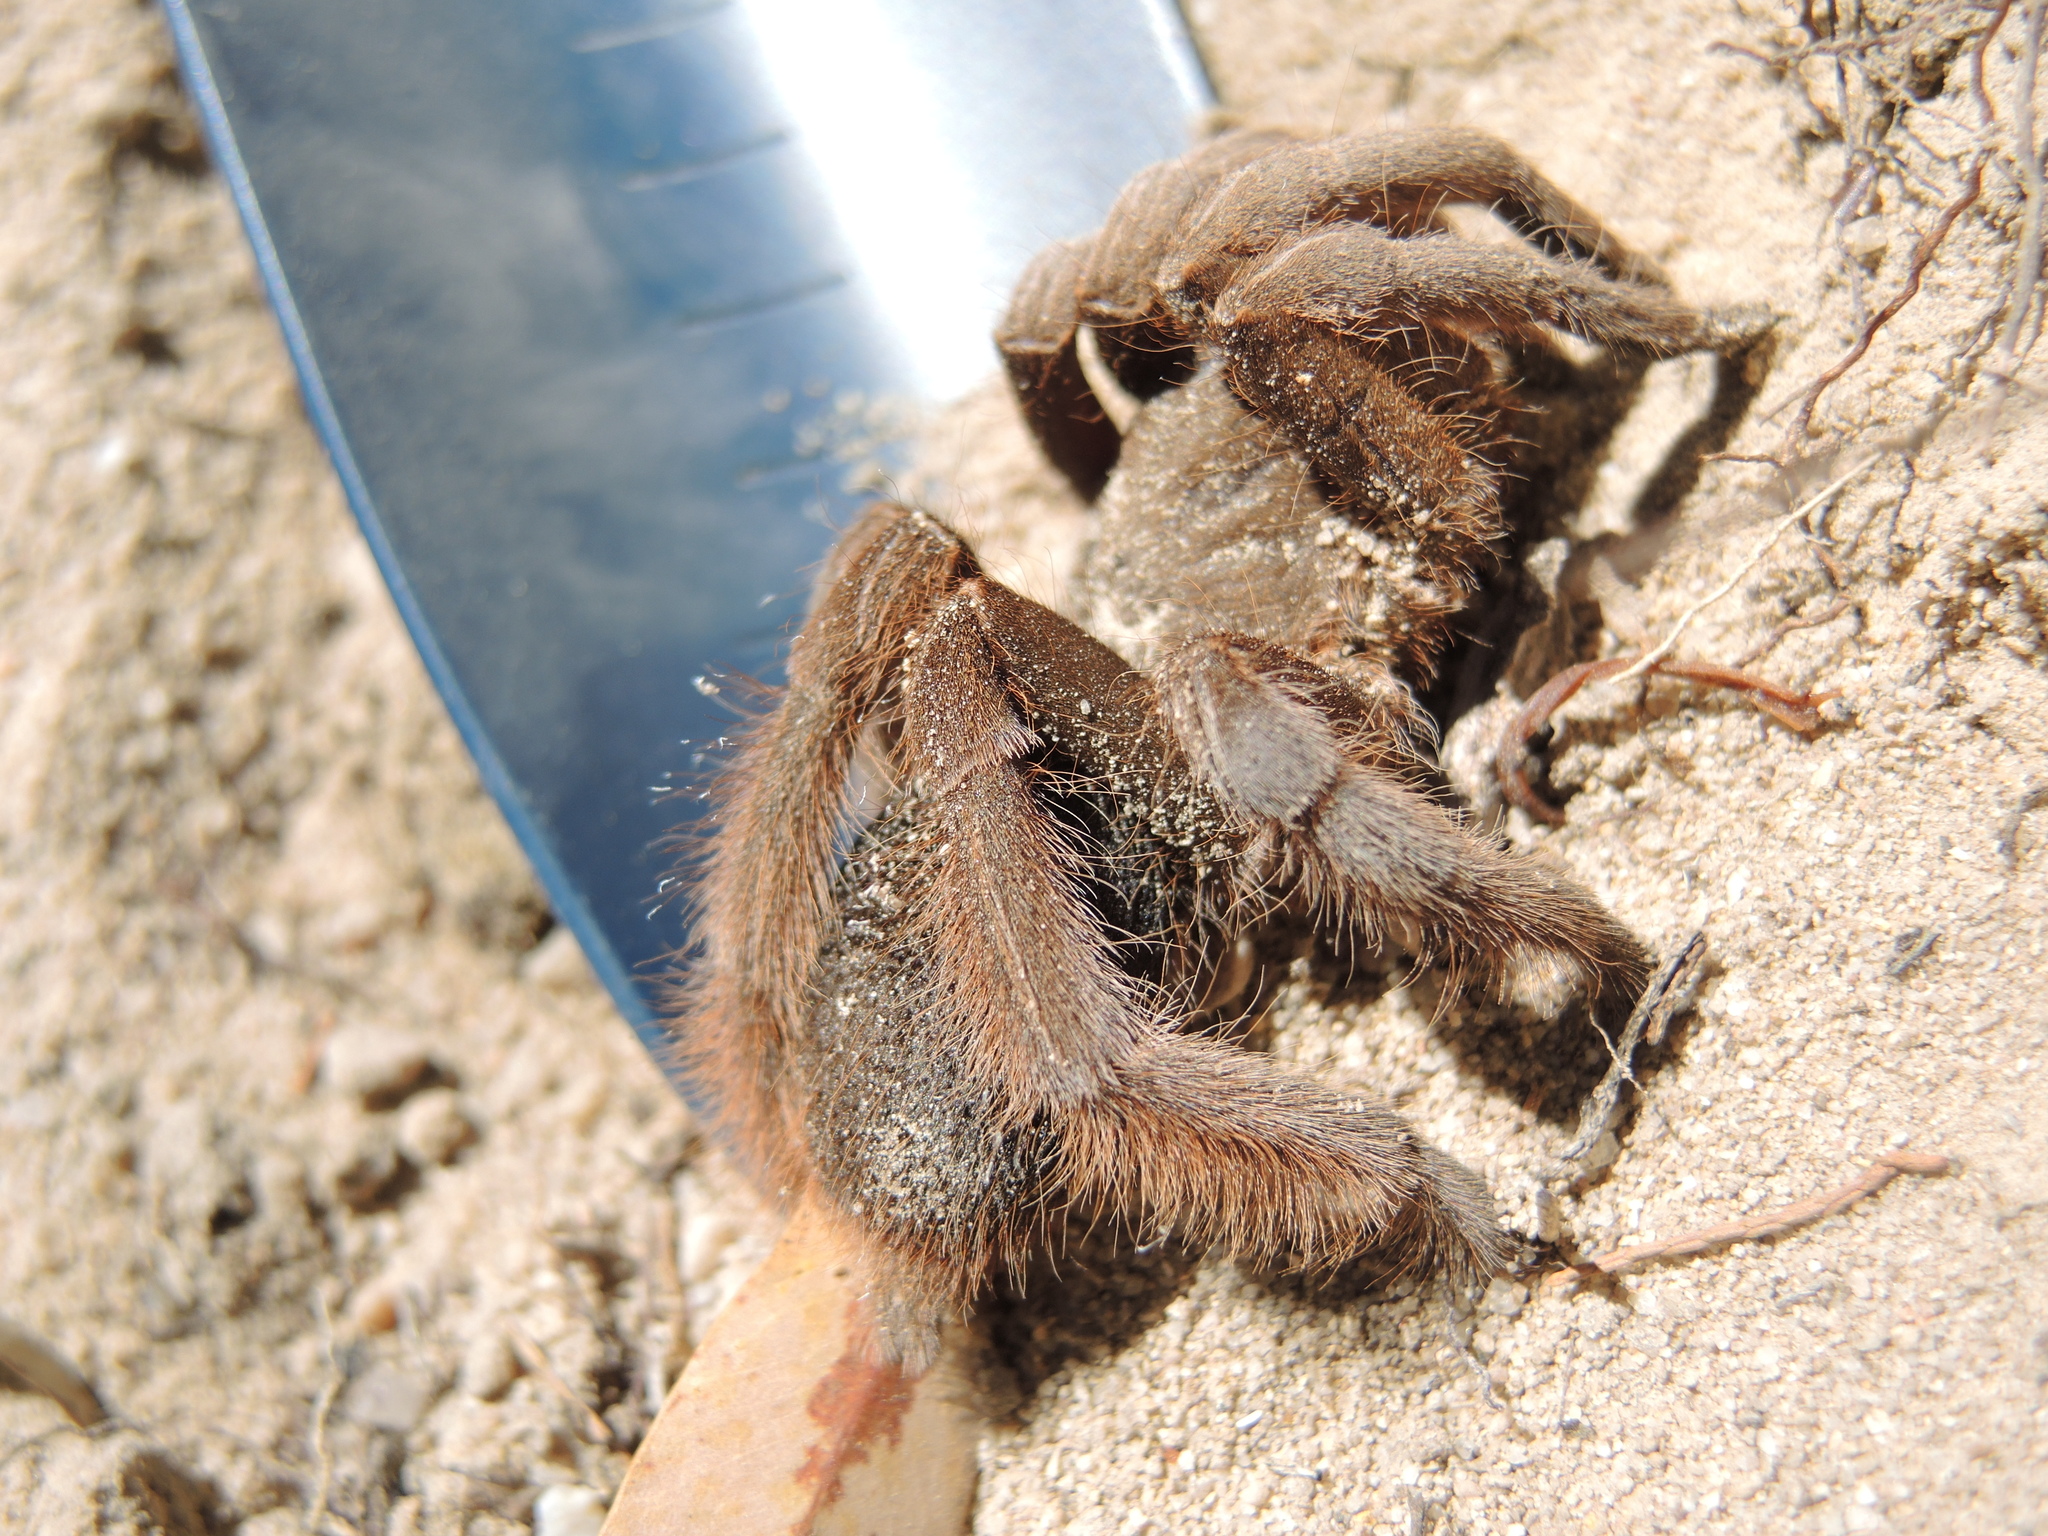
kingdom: Animalia
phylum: Arthropoda
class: Arachnida
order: Araneae
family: Theraphosidae
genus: Selenotypus
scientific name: Selenotypus plumipes
